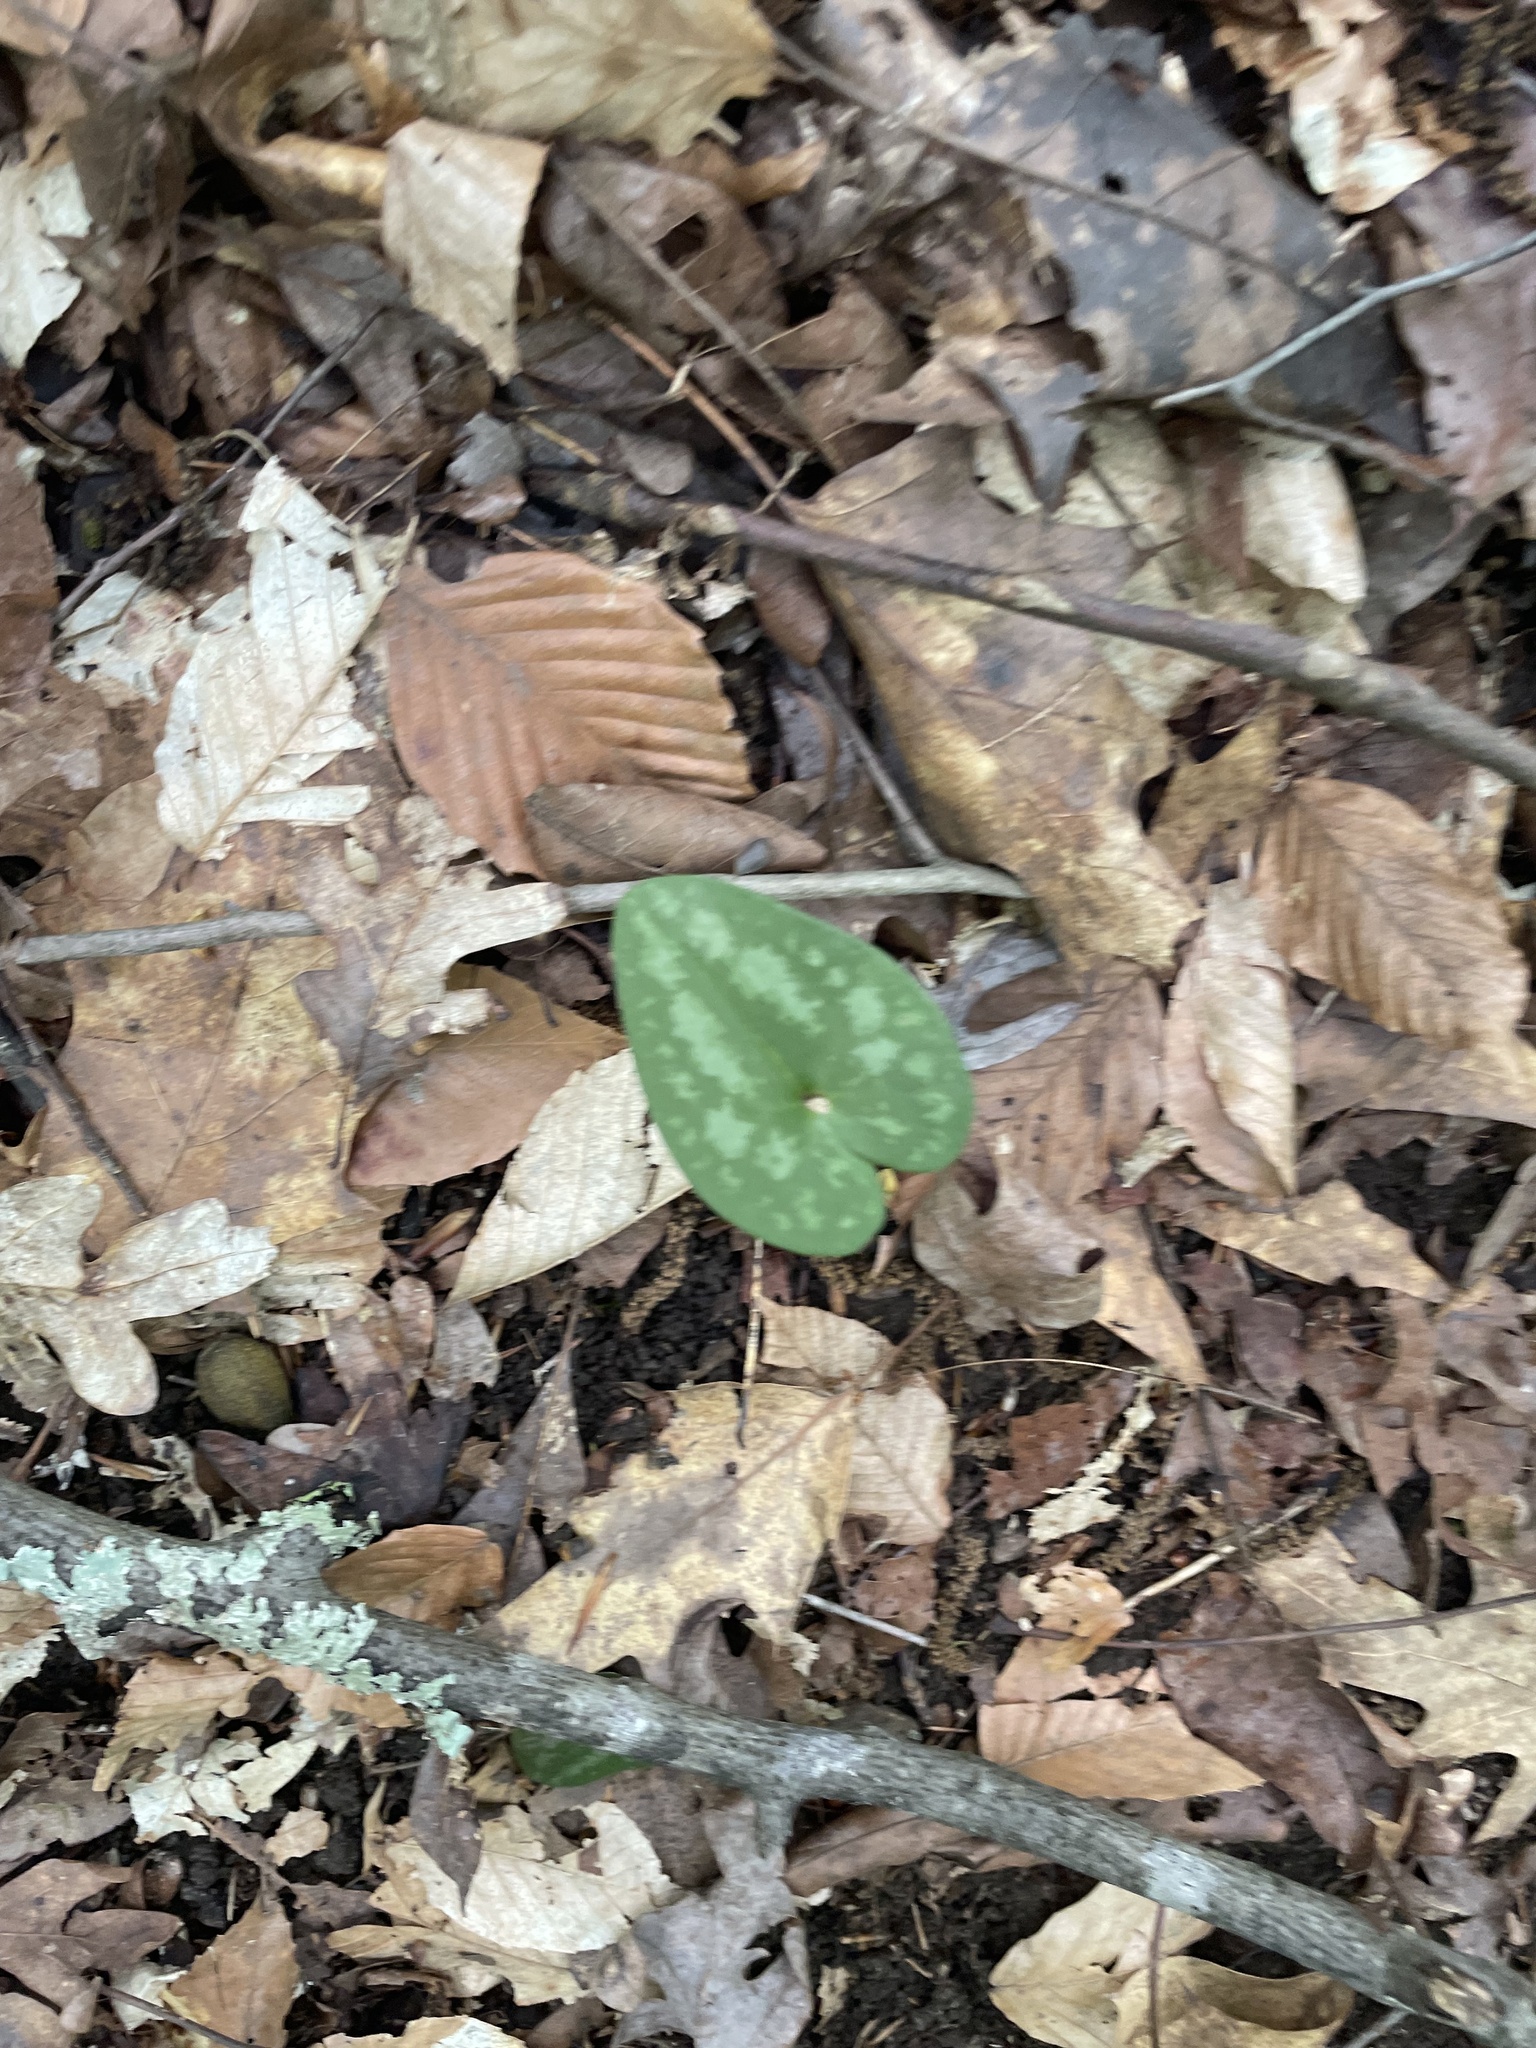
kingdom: Plantae
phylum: Tracheophyta
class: Magnoliopsida
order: Piperales
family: Aristolochiaceae
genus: Hexastylis
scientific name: Hexastylis arifolia
